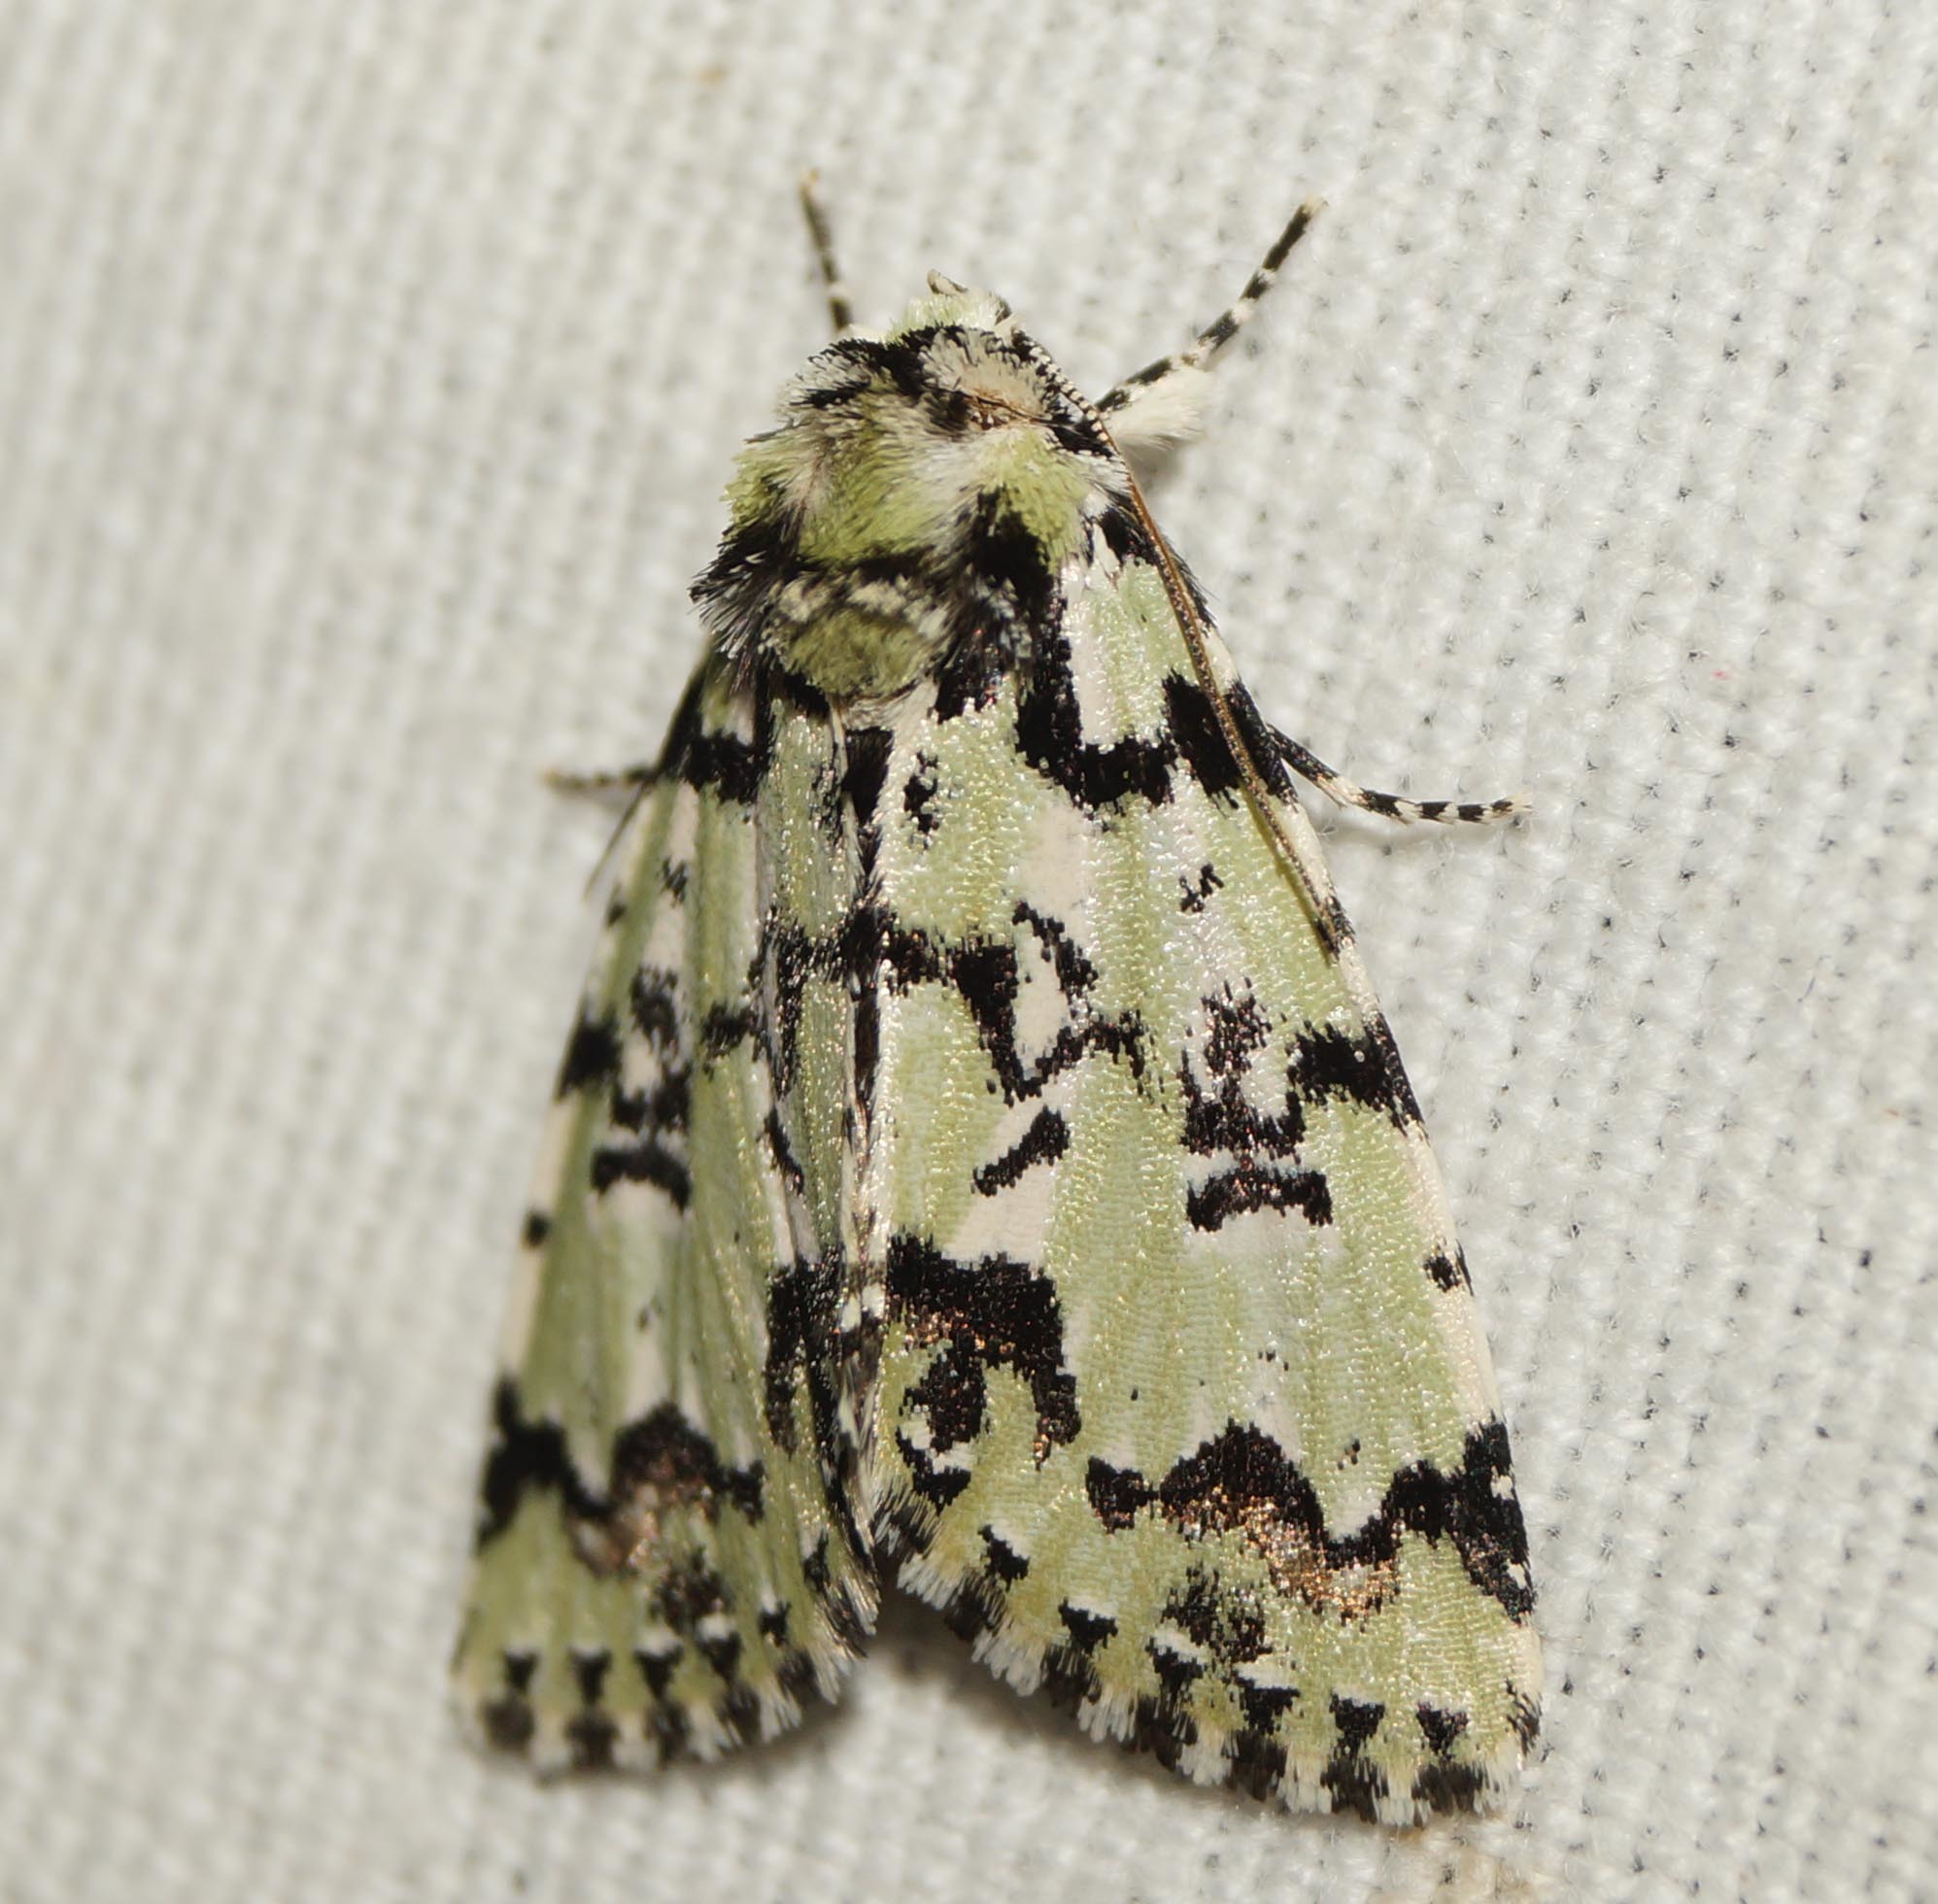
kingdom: Animalia
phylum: Arthropoda
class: Insecta
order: Lepidoptera
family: Noctuidae
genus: Moma
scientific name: Moma alpium
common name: Scarce merveille du jour
